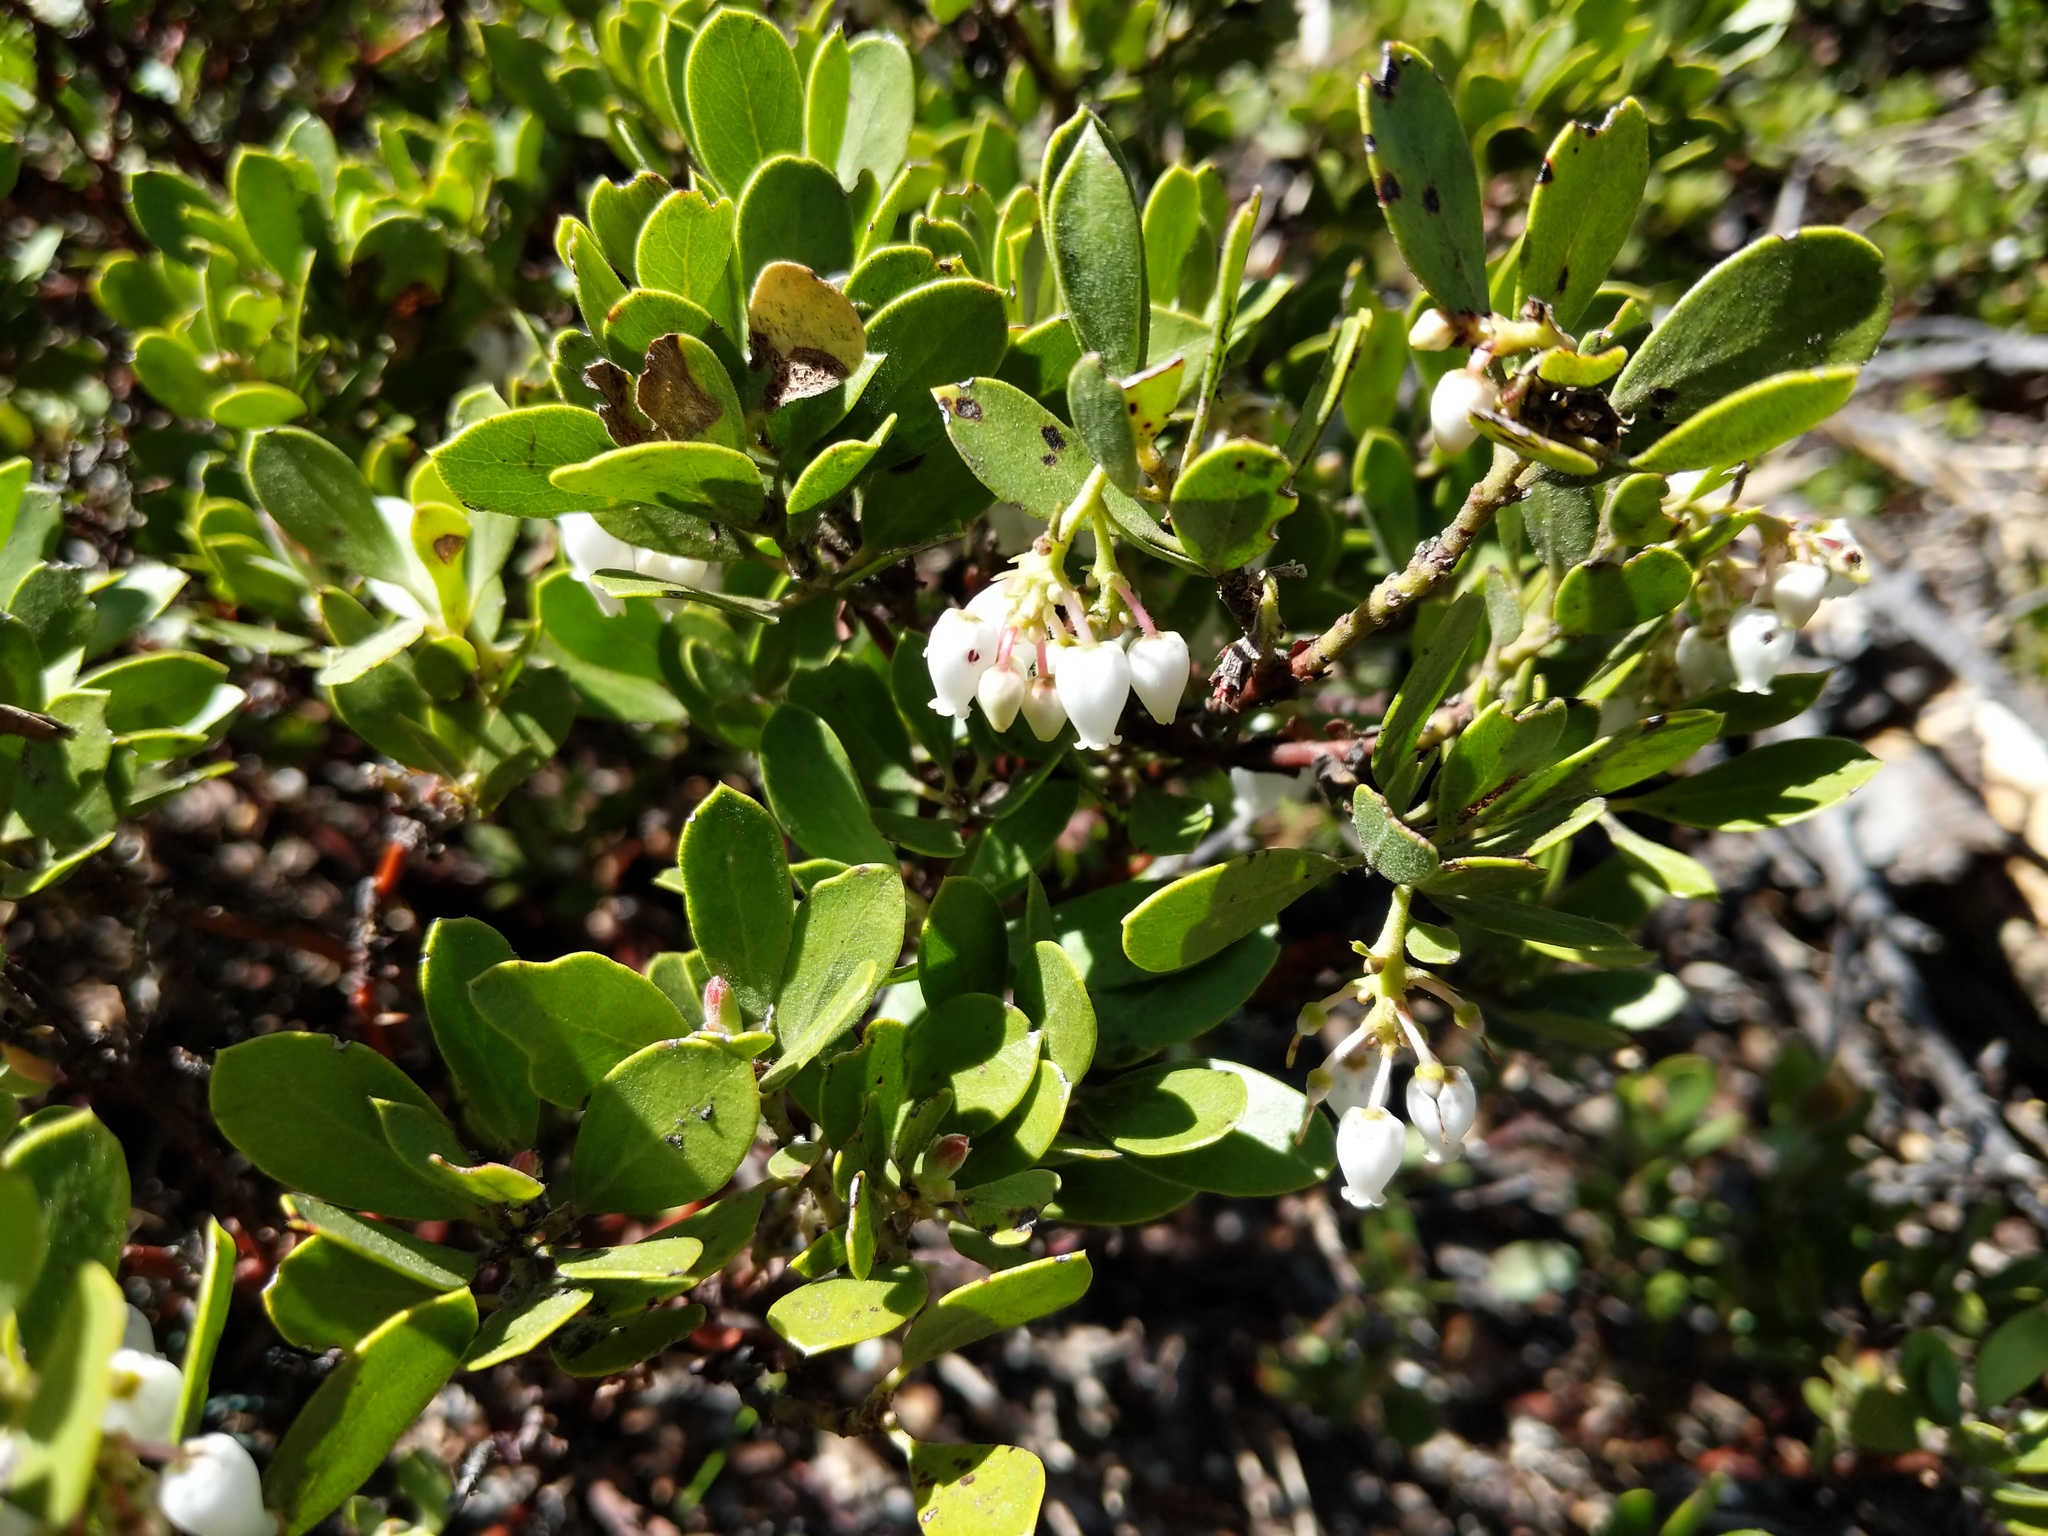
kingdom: Plantae
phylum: Tracheophyta
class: Magnoliopsida
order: Ericales
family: Ericaceae
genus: Arctostaphylos
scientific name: Arctostaphylos nevadensis
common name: Pinemat manzanita
